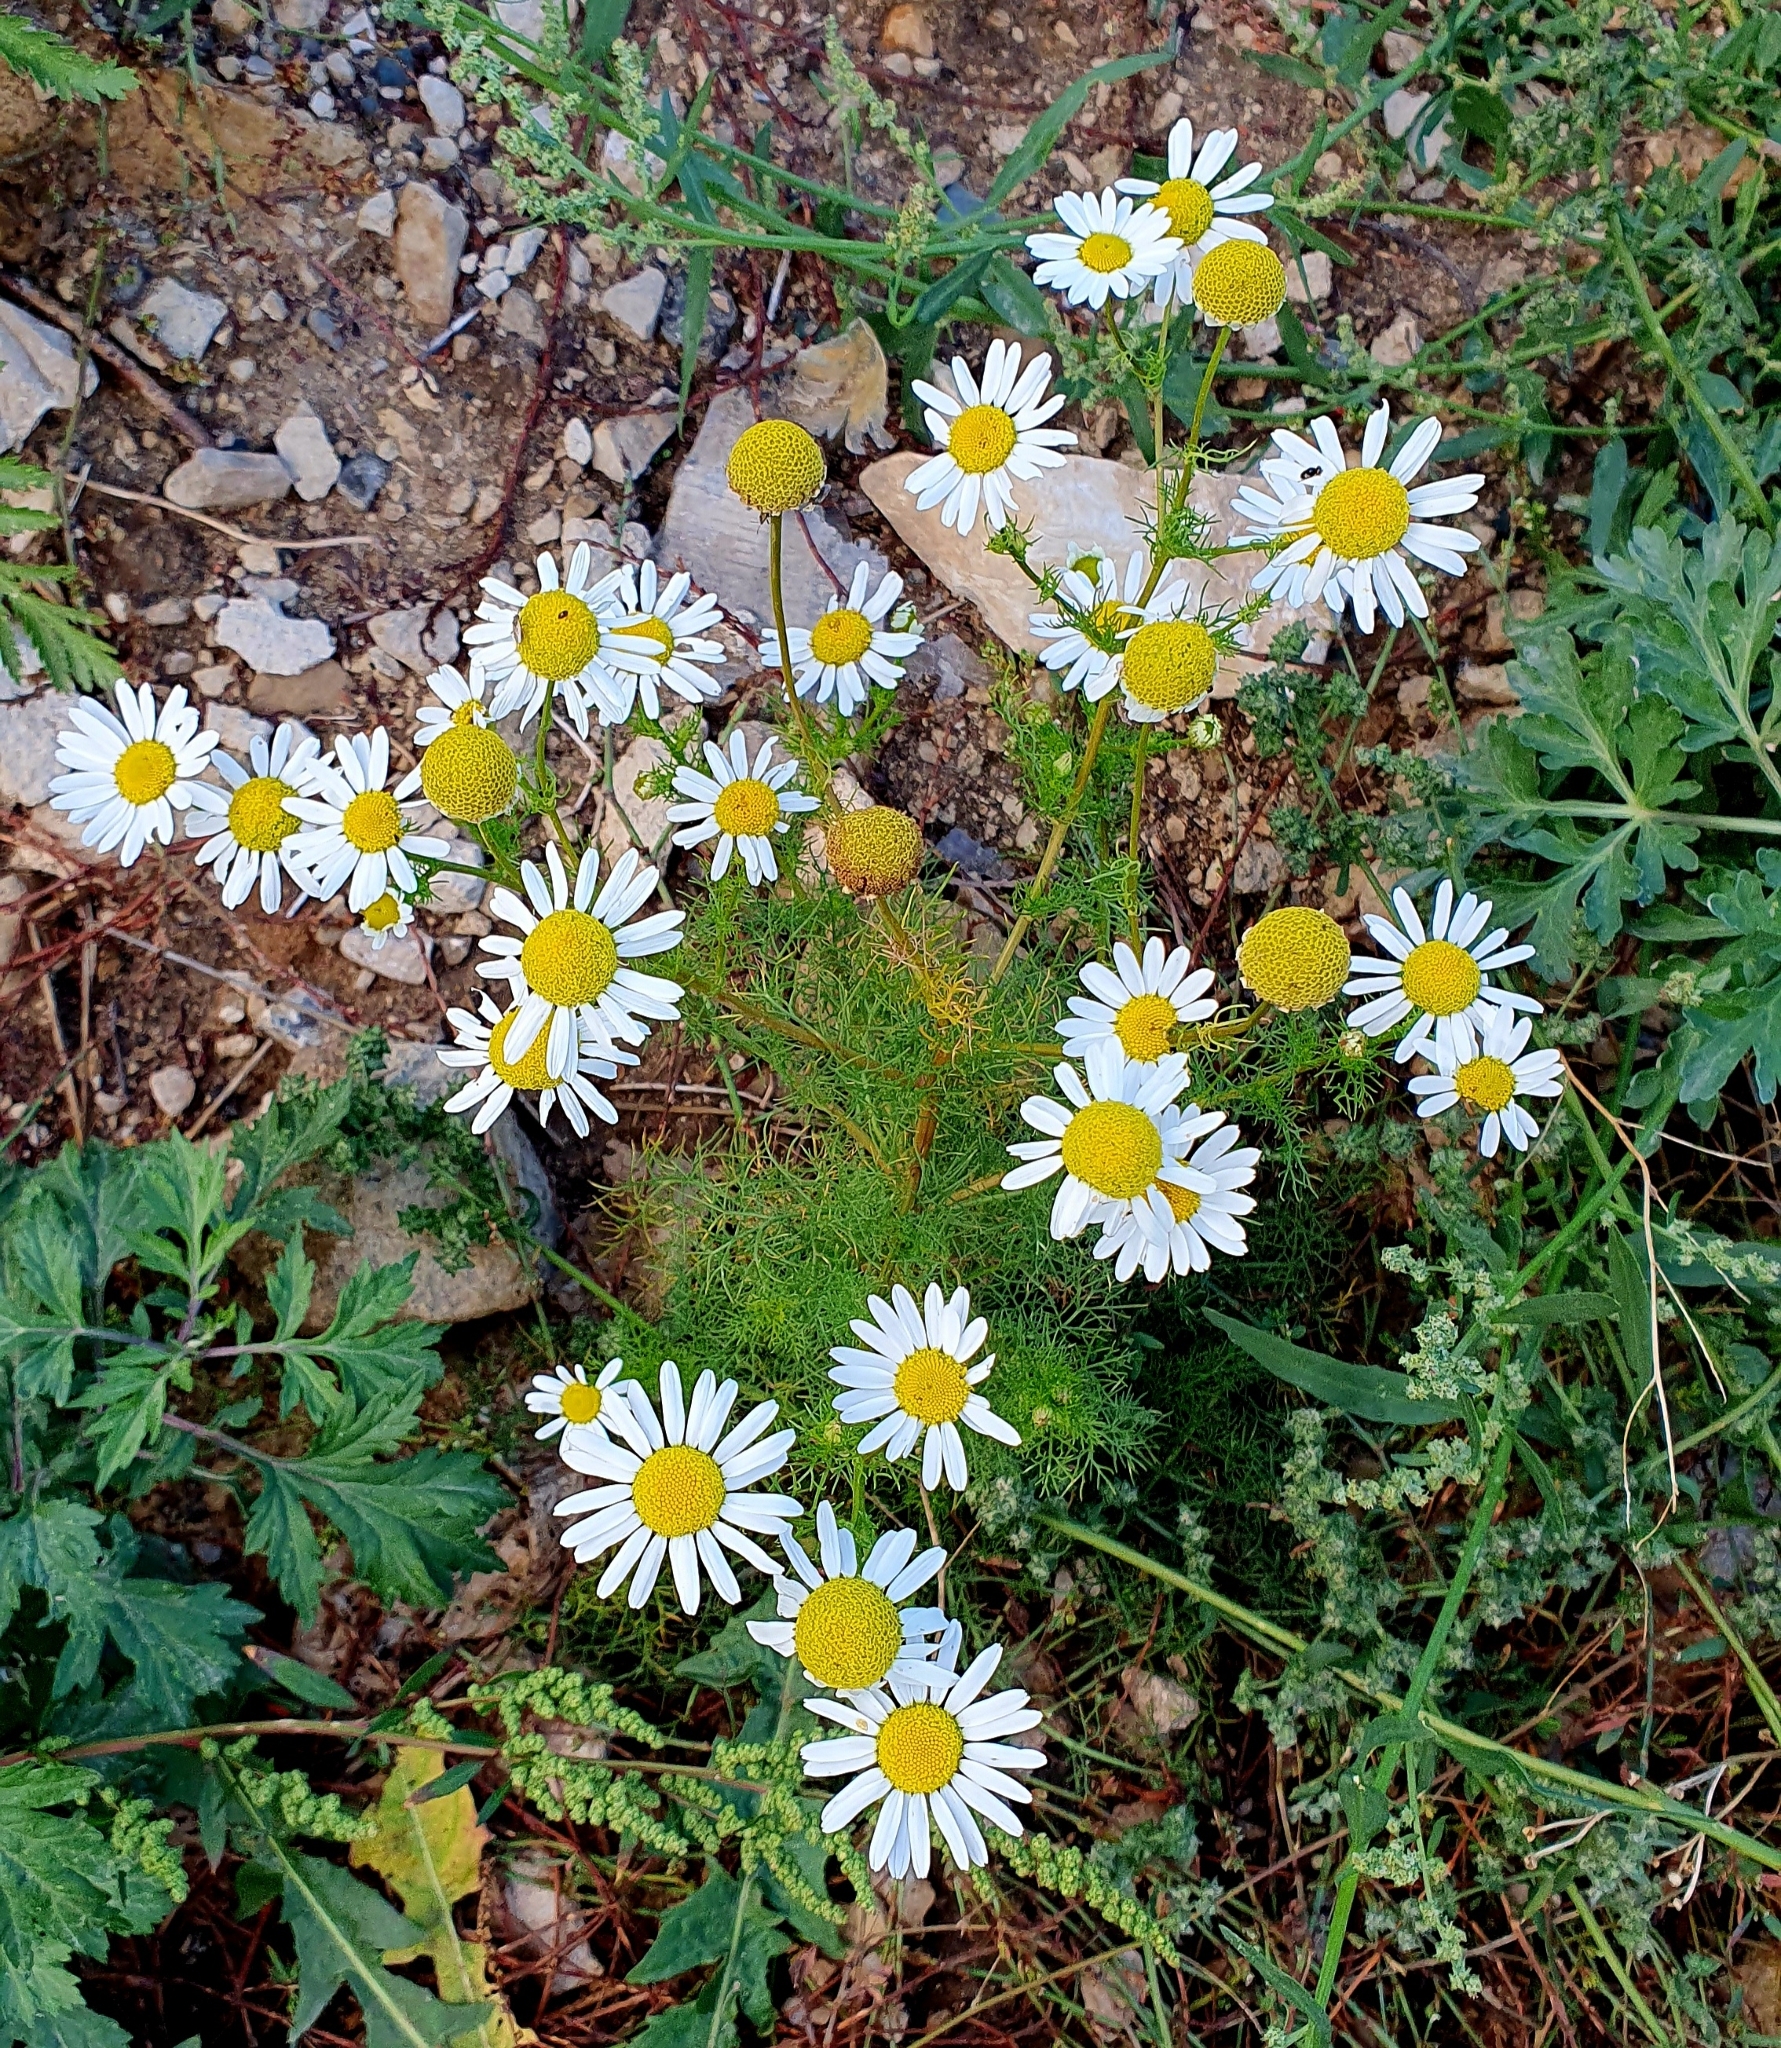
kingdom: Plantae
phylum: Tracheophyta
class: Magnoliopsida
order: Asterales
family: Asteraceae
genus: Tripleurospermum
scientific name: Tripleurospermum inodorum
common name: Scentless mayweed
